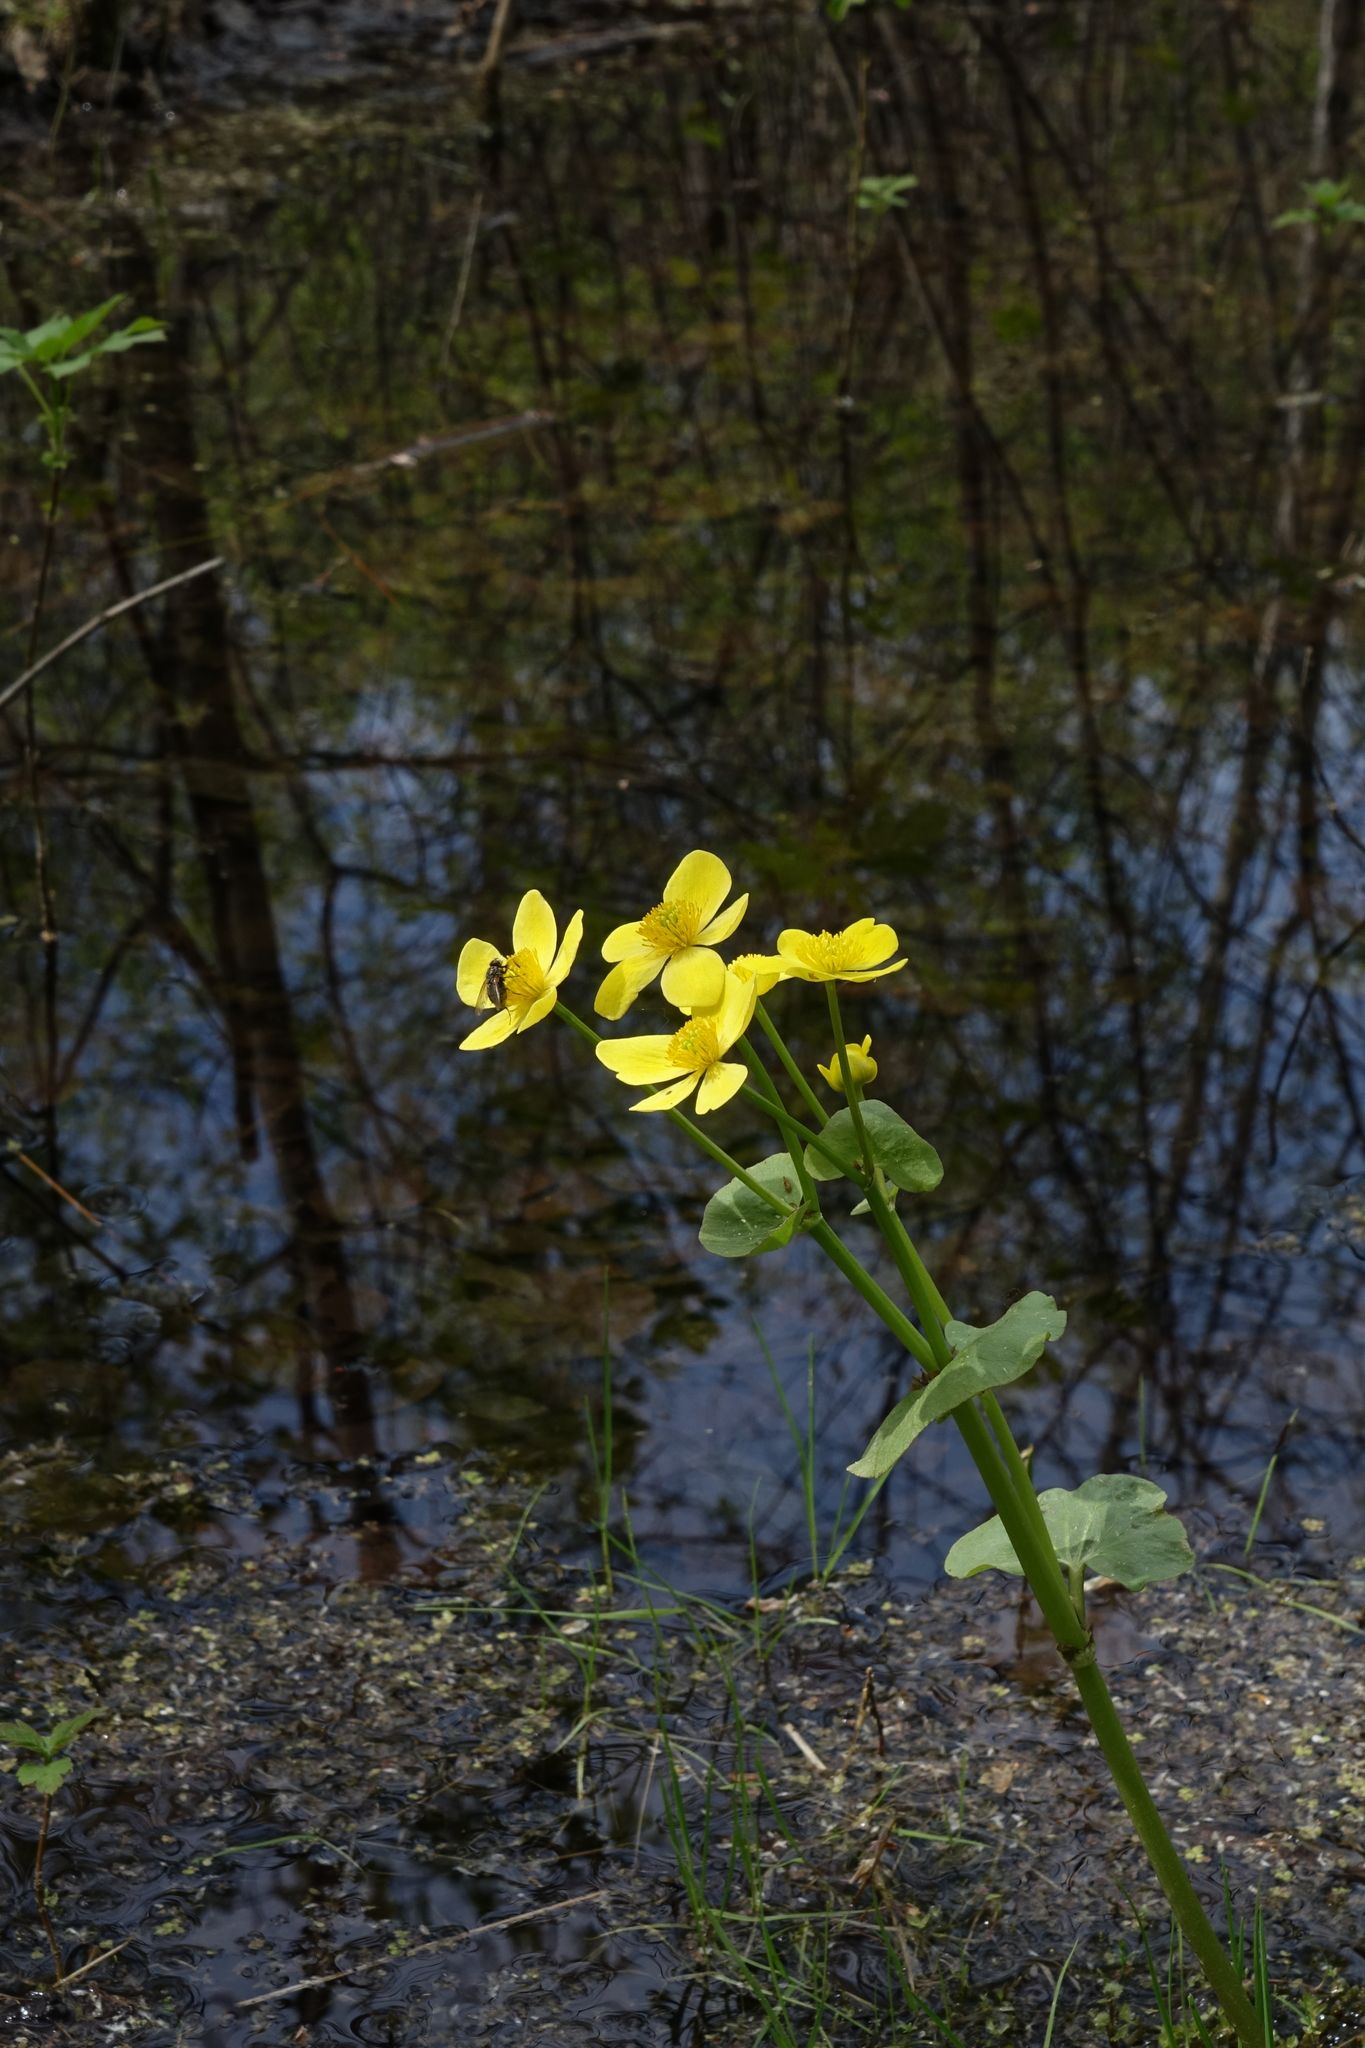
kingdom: Plantae
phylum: Tracheophyta
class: Magnoliopsida
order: Ranunculales
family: Ranunculaceae
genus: Caltha
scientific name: Caltha palustris
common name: Marsh marigold
